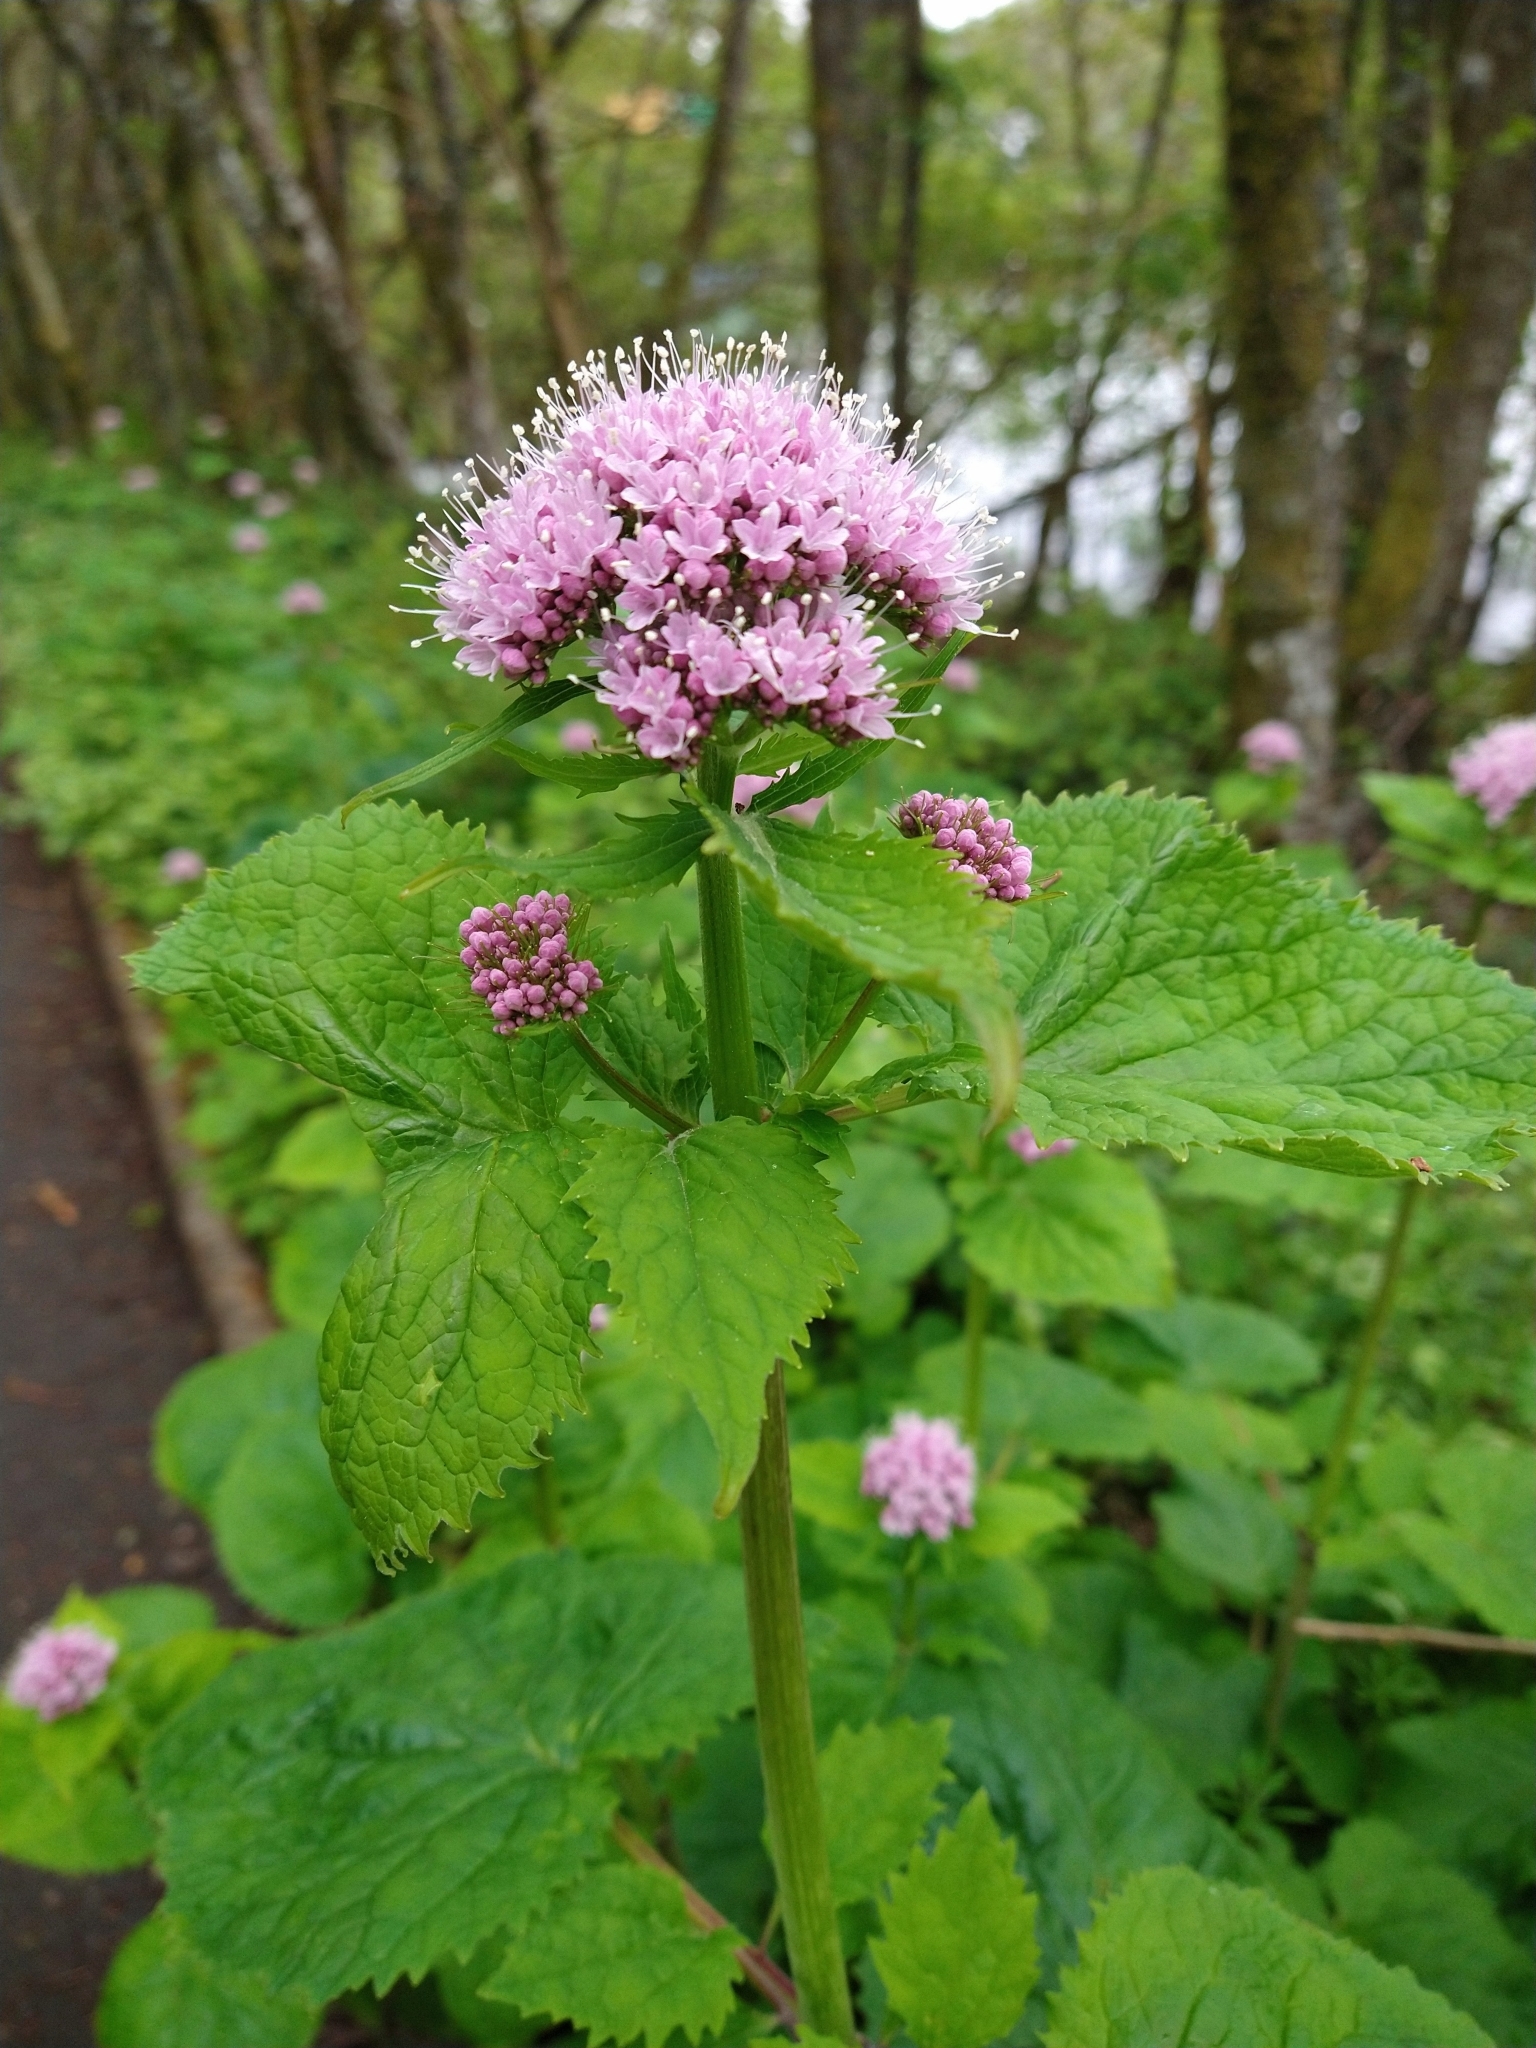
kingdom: Plantae
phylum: Tracheophyta
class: Magnoliopsida
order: Dipsacales
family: Caprifoliaceae
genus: Valeriana
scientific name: Valeriana pyrenaica
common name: Pyrenean valerian
